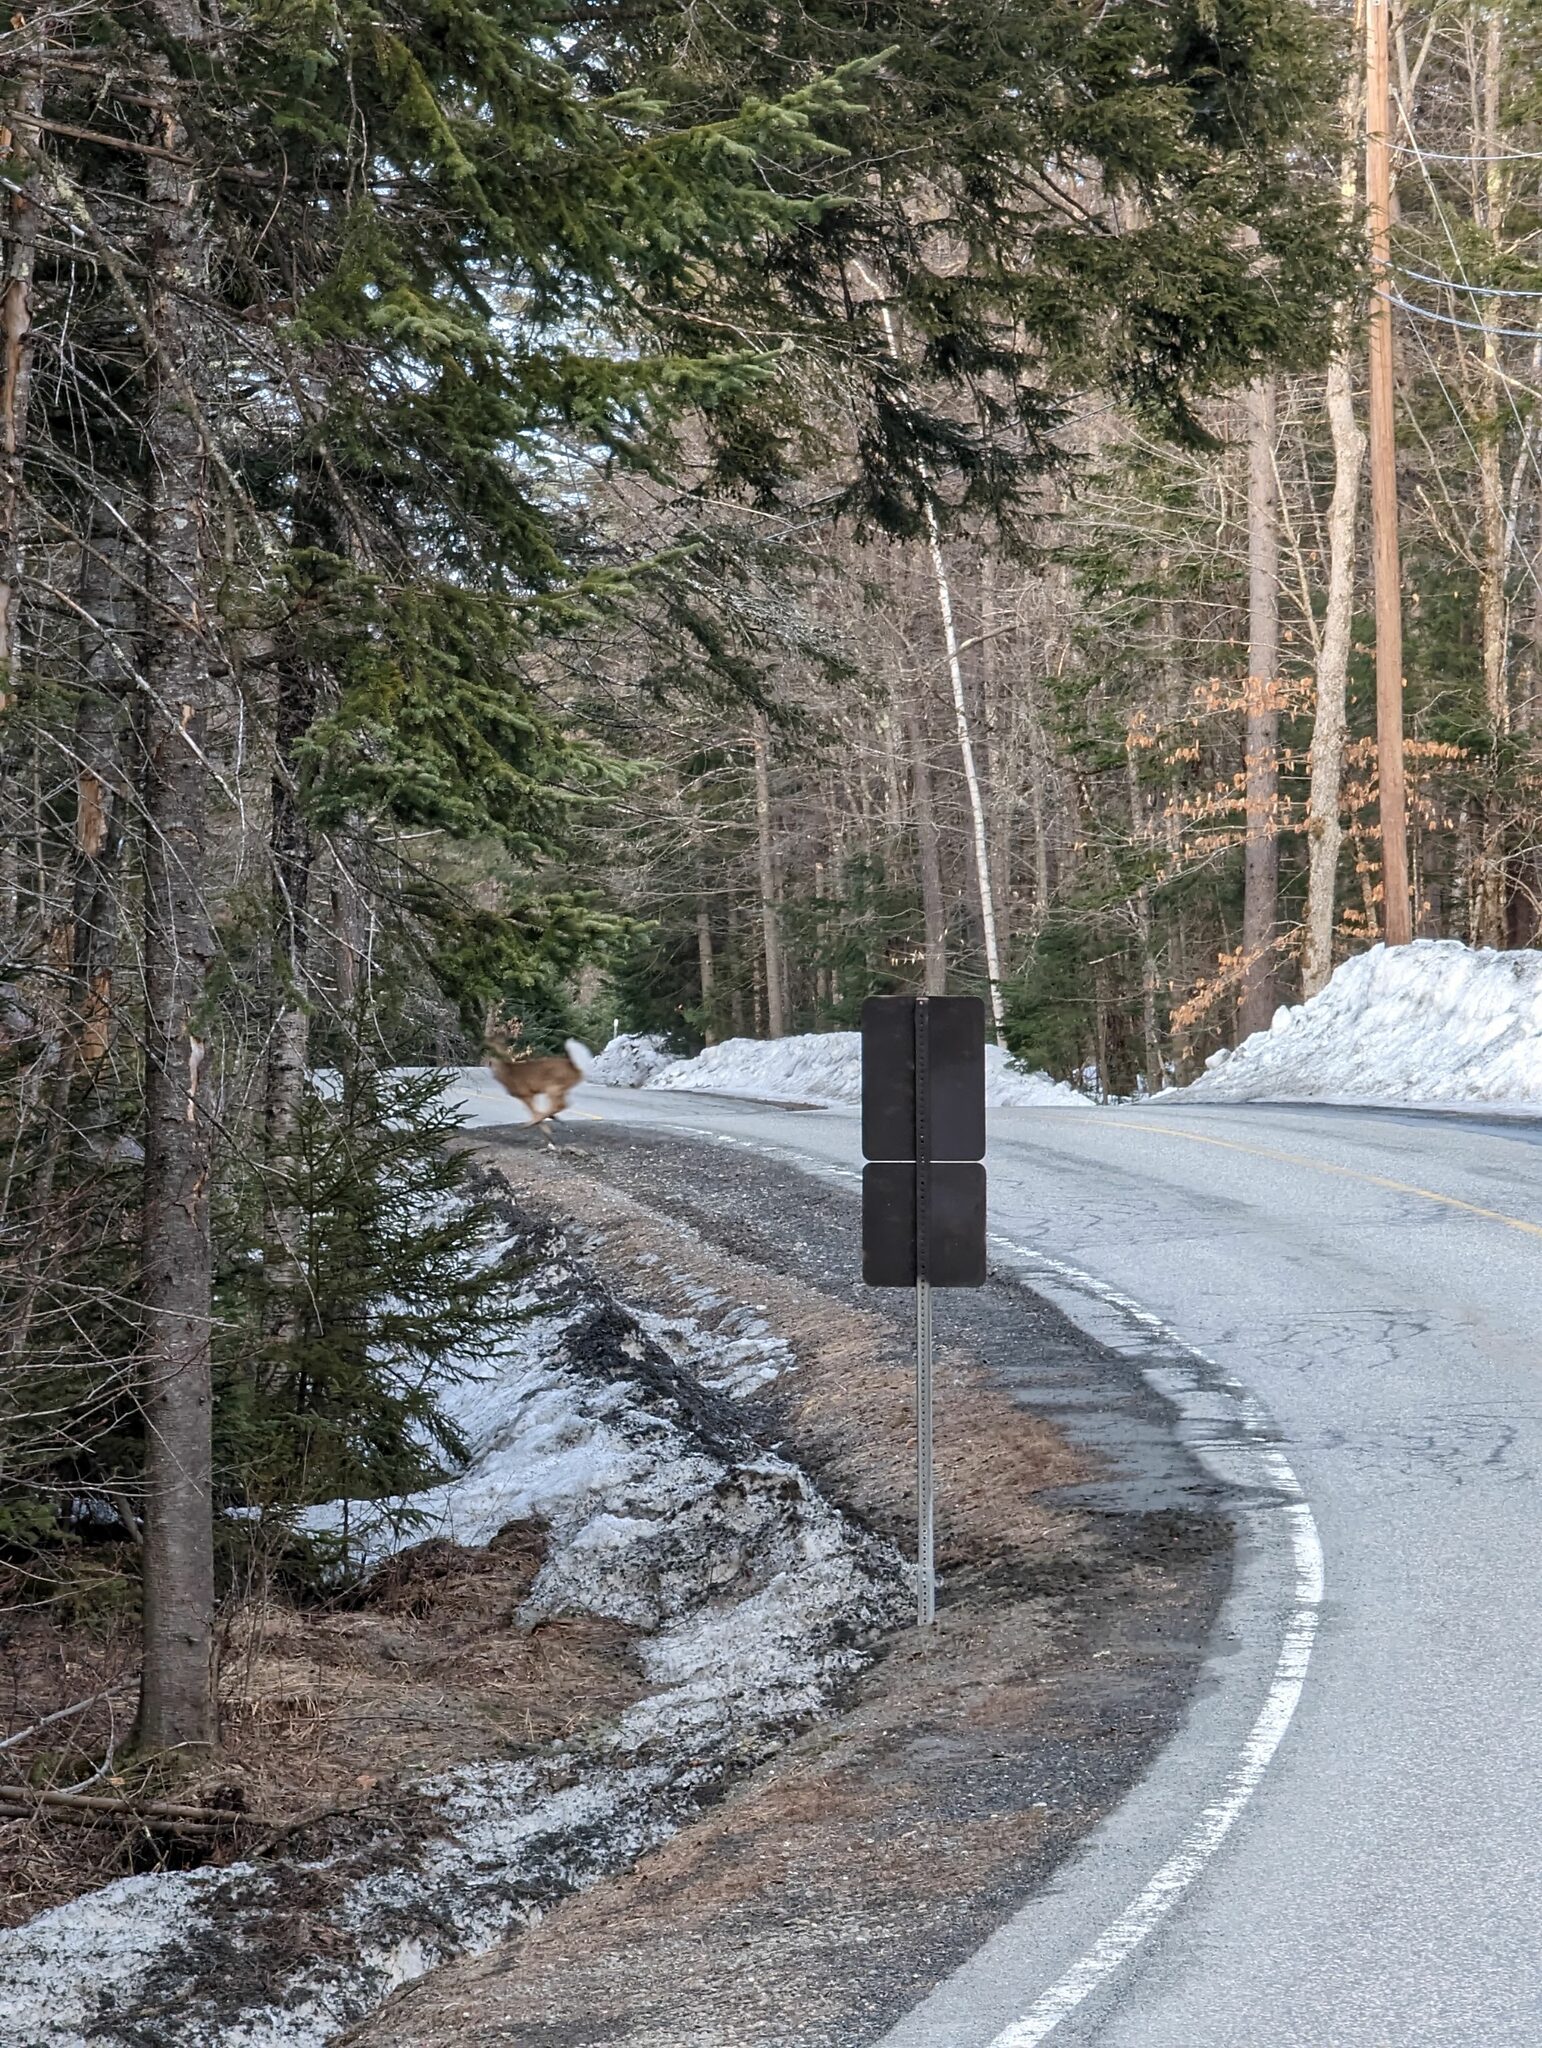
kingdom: Animalia
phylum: Chordata
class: Mammalia
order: Artiodactyla
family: Cervidae
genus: Odocoileus
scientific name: Odocoileus virginianus
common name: White-tailed deer
